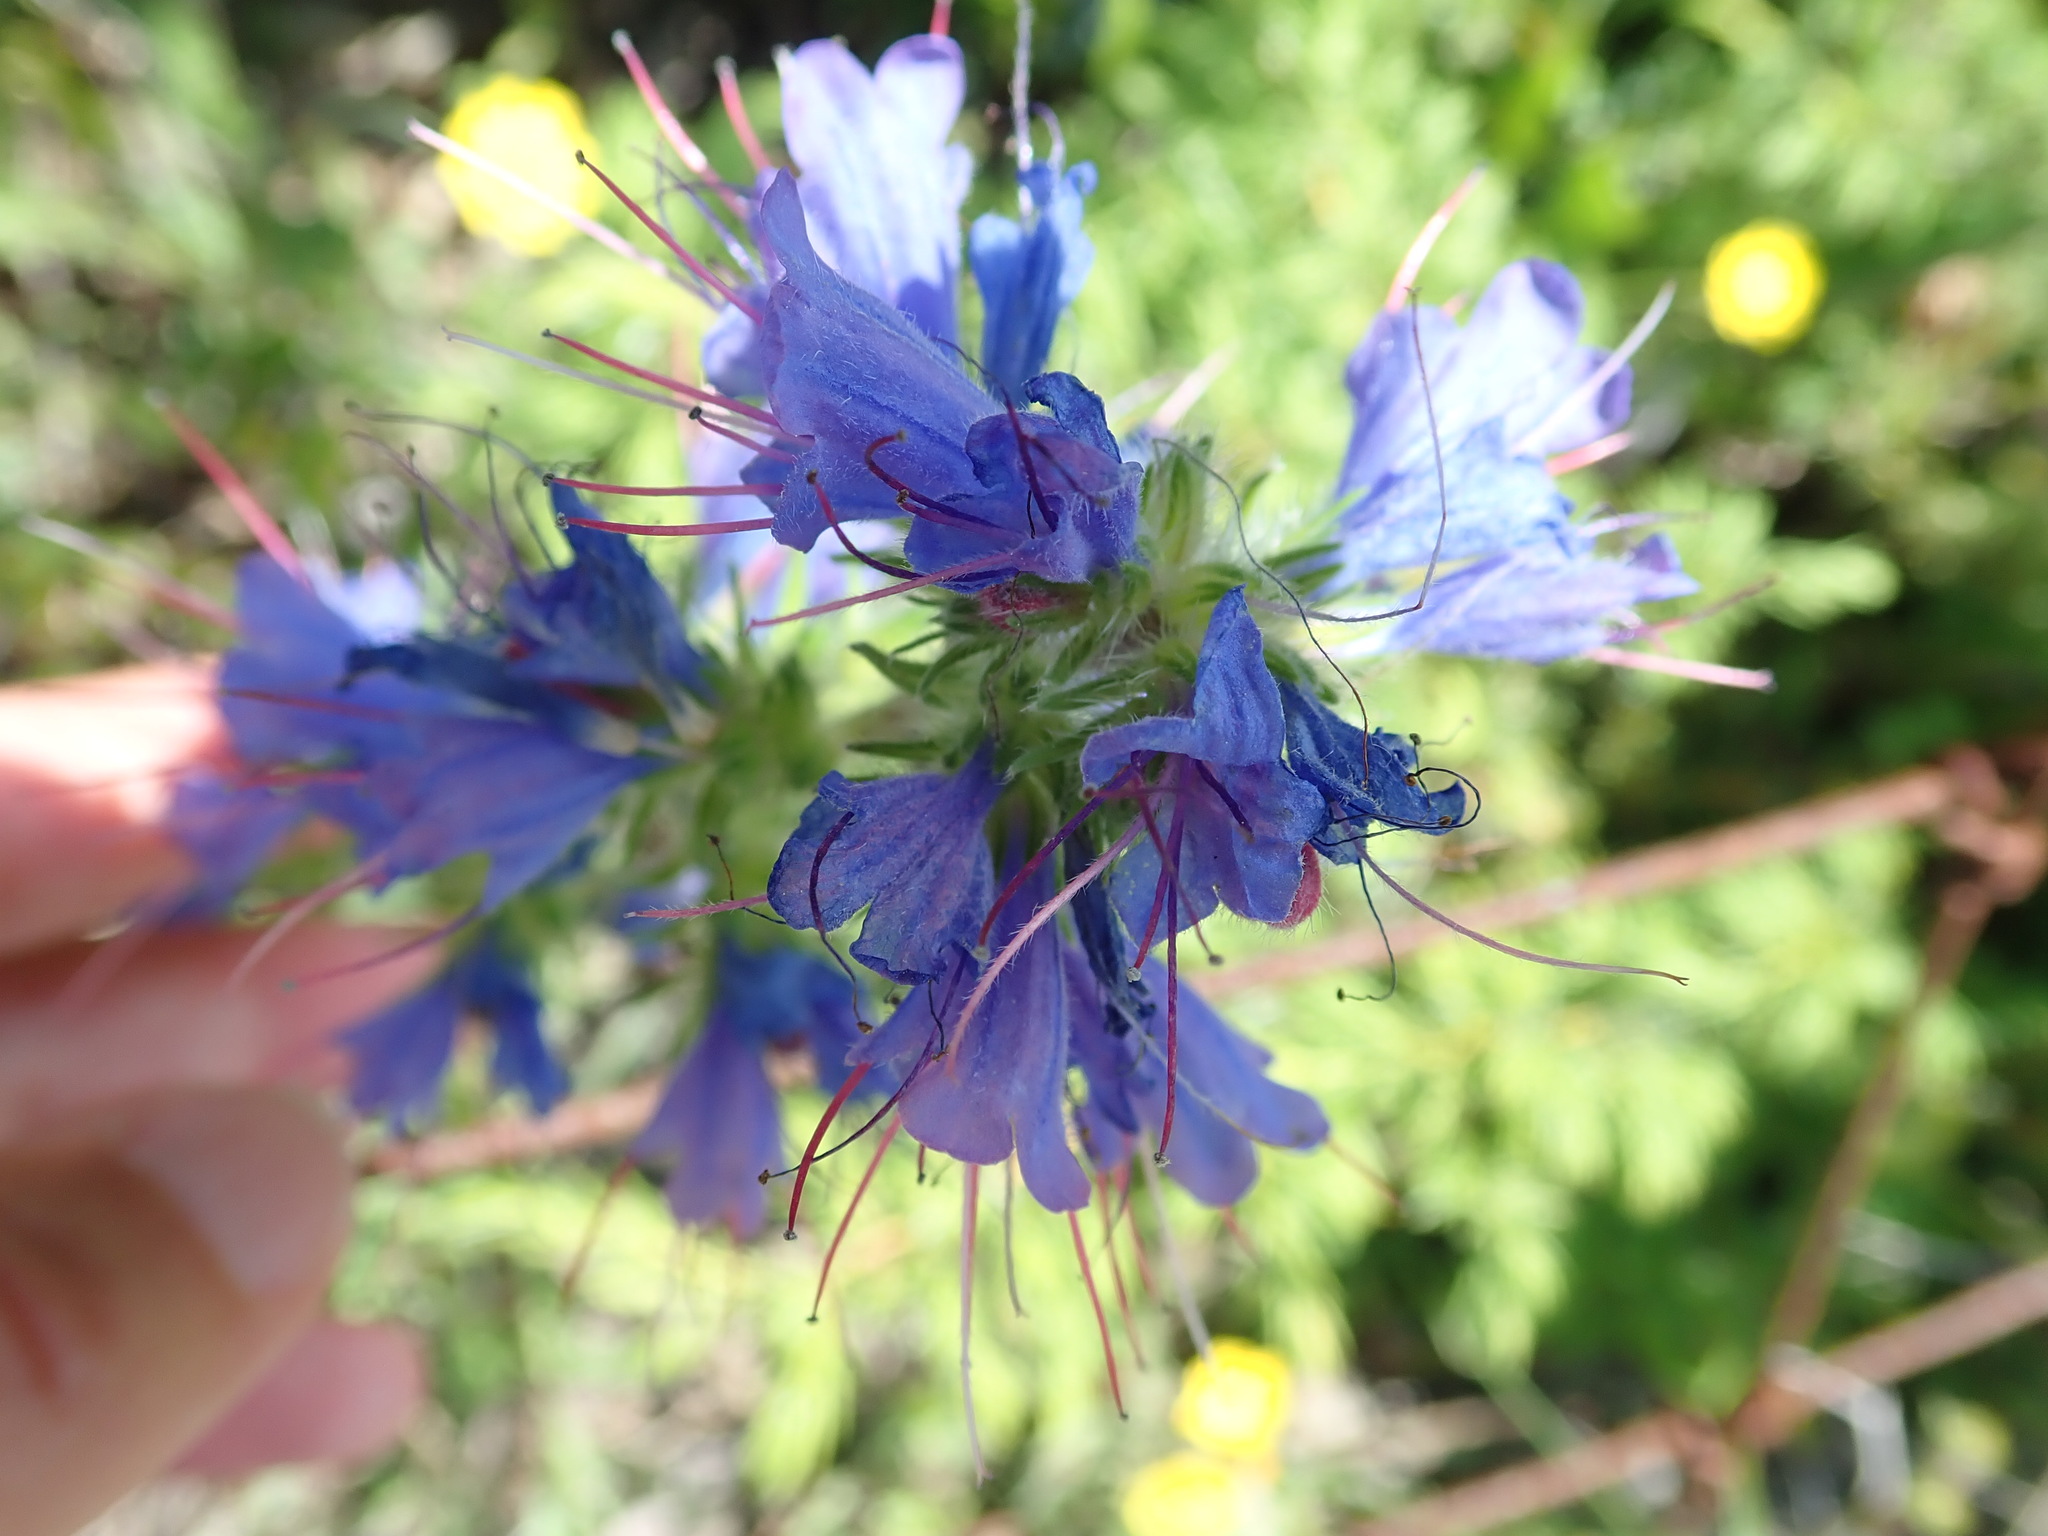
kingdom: Plantae
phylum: Tracheophyta
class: Magnoliopsida
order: Boraginales
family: Boraginaceae
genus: Echium
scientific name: Echium vulgare
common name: Common viper's bugloss
